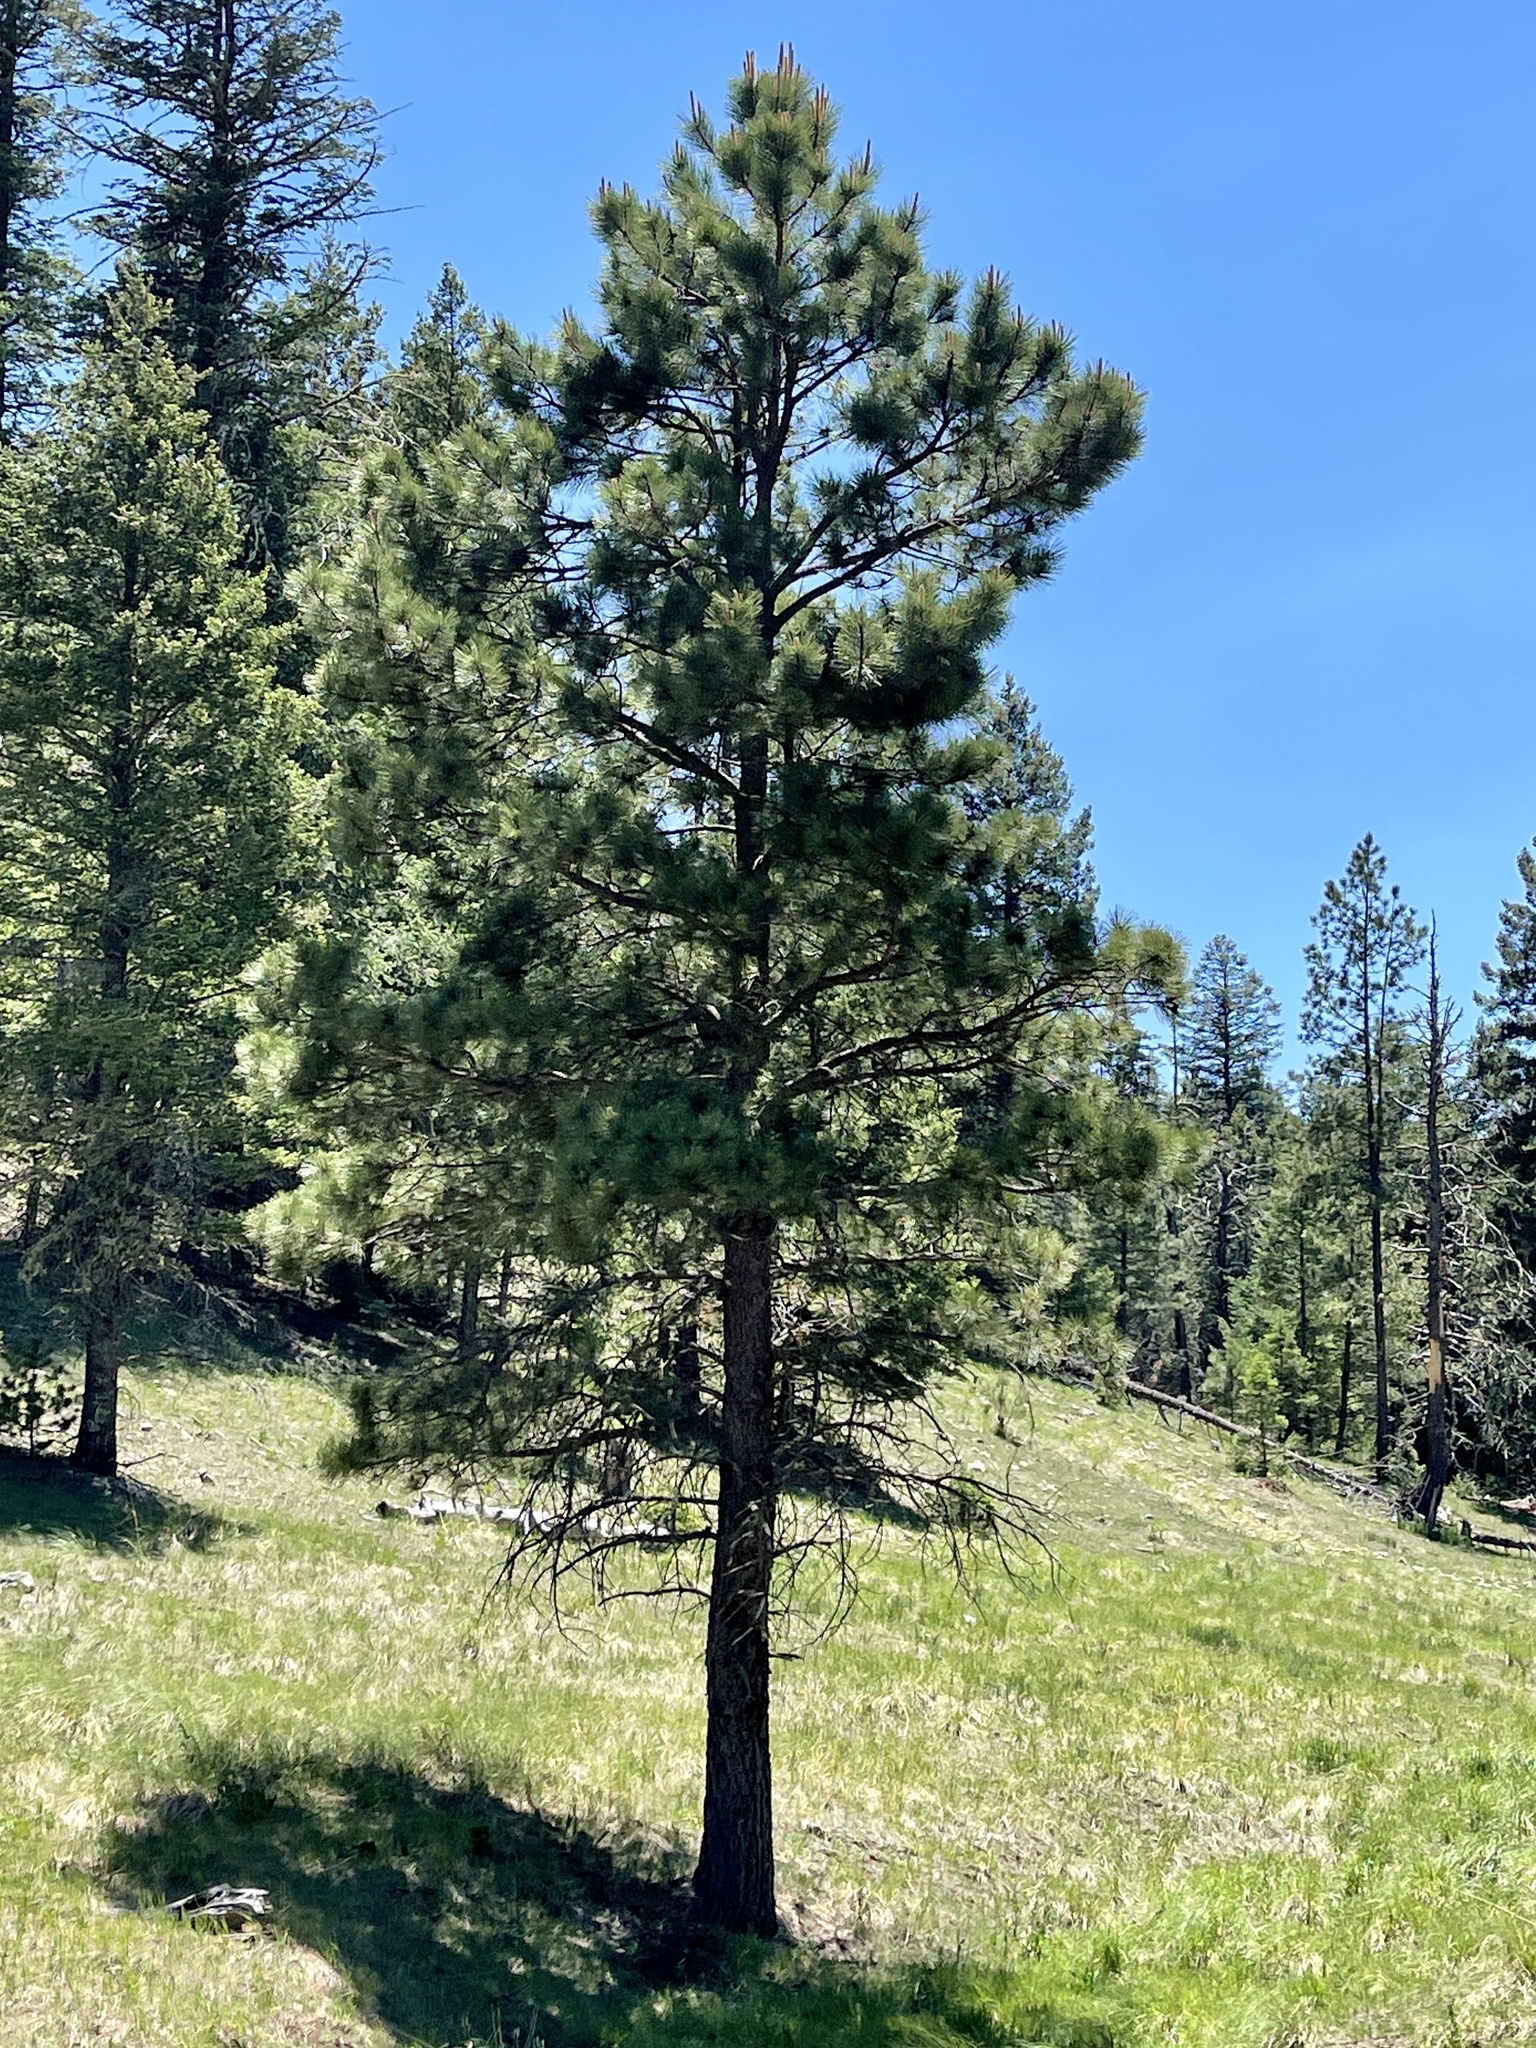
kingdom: Plantae
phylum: Tracheophyta
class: Pinopsida
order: Pinales
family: Pinaceae
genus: Pinus
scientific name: Pinus ponderosa
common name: Western yellow-pine
